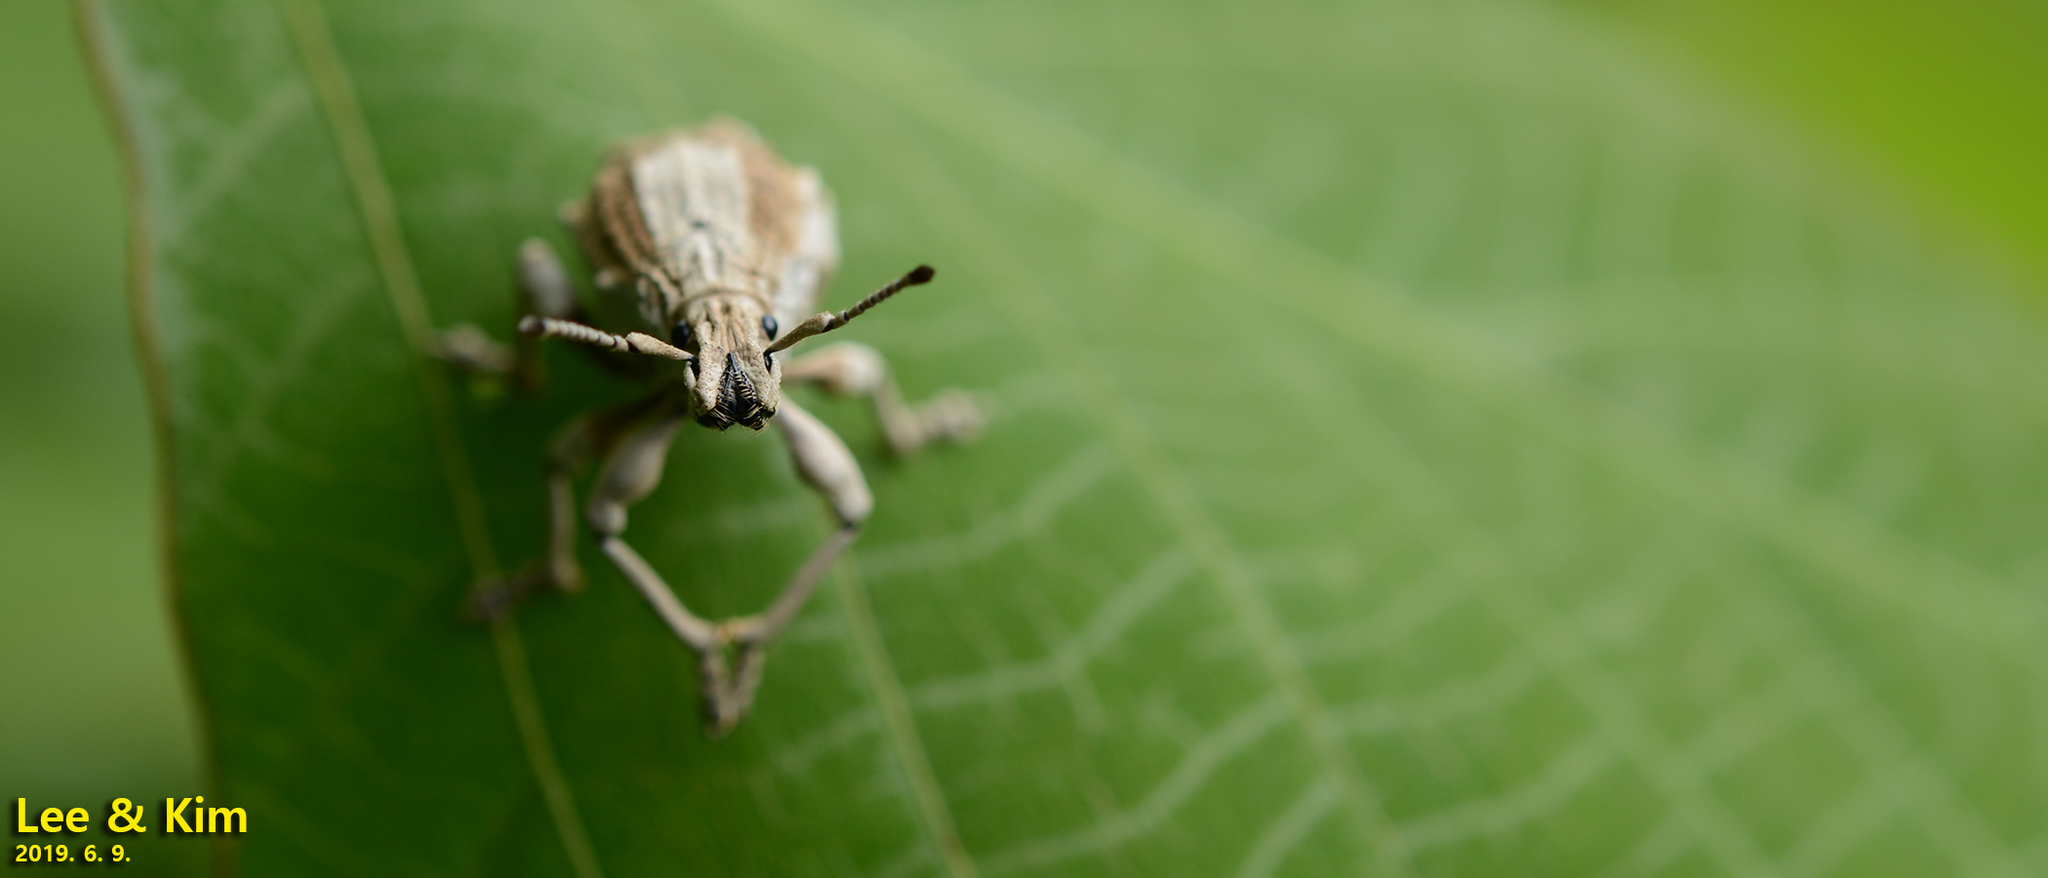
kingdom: Animalia
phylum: Arthropoda
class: Insecta
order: Coleoptera
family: Curculionidae
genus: Episomus
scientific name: Episomus turritus
